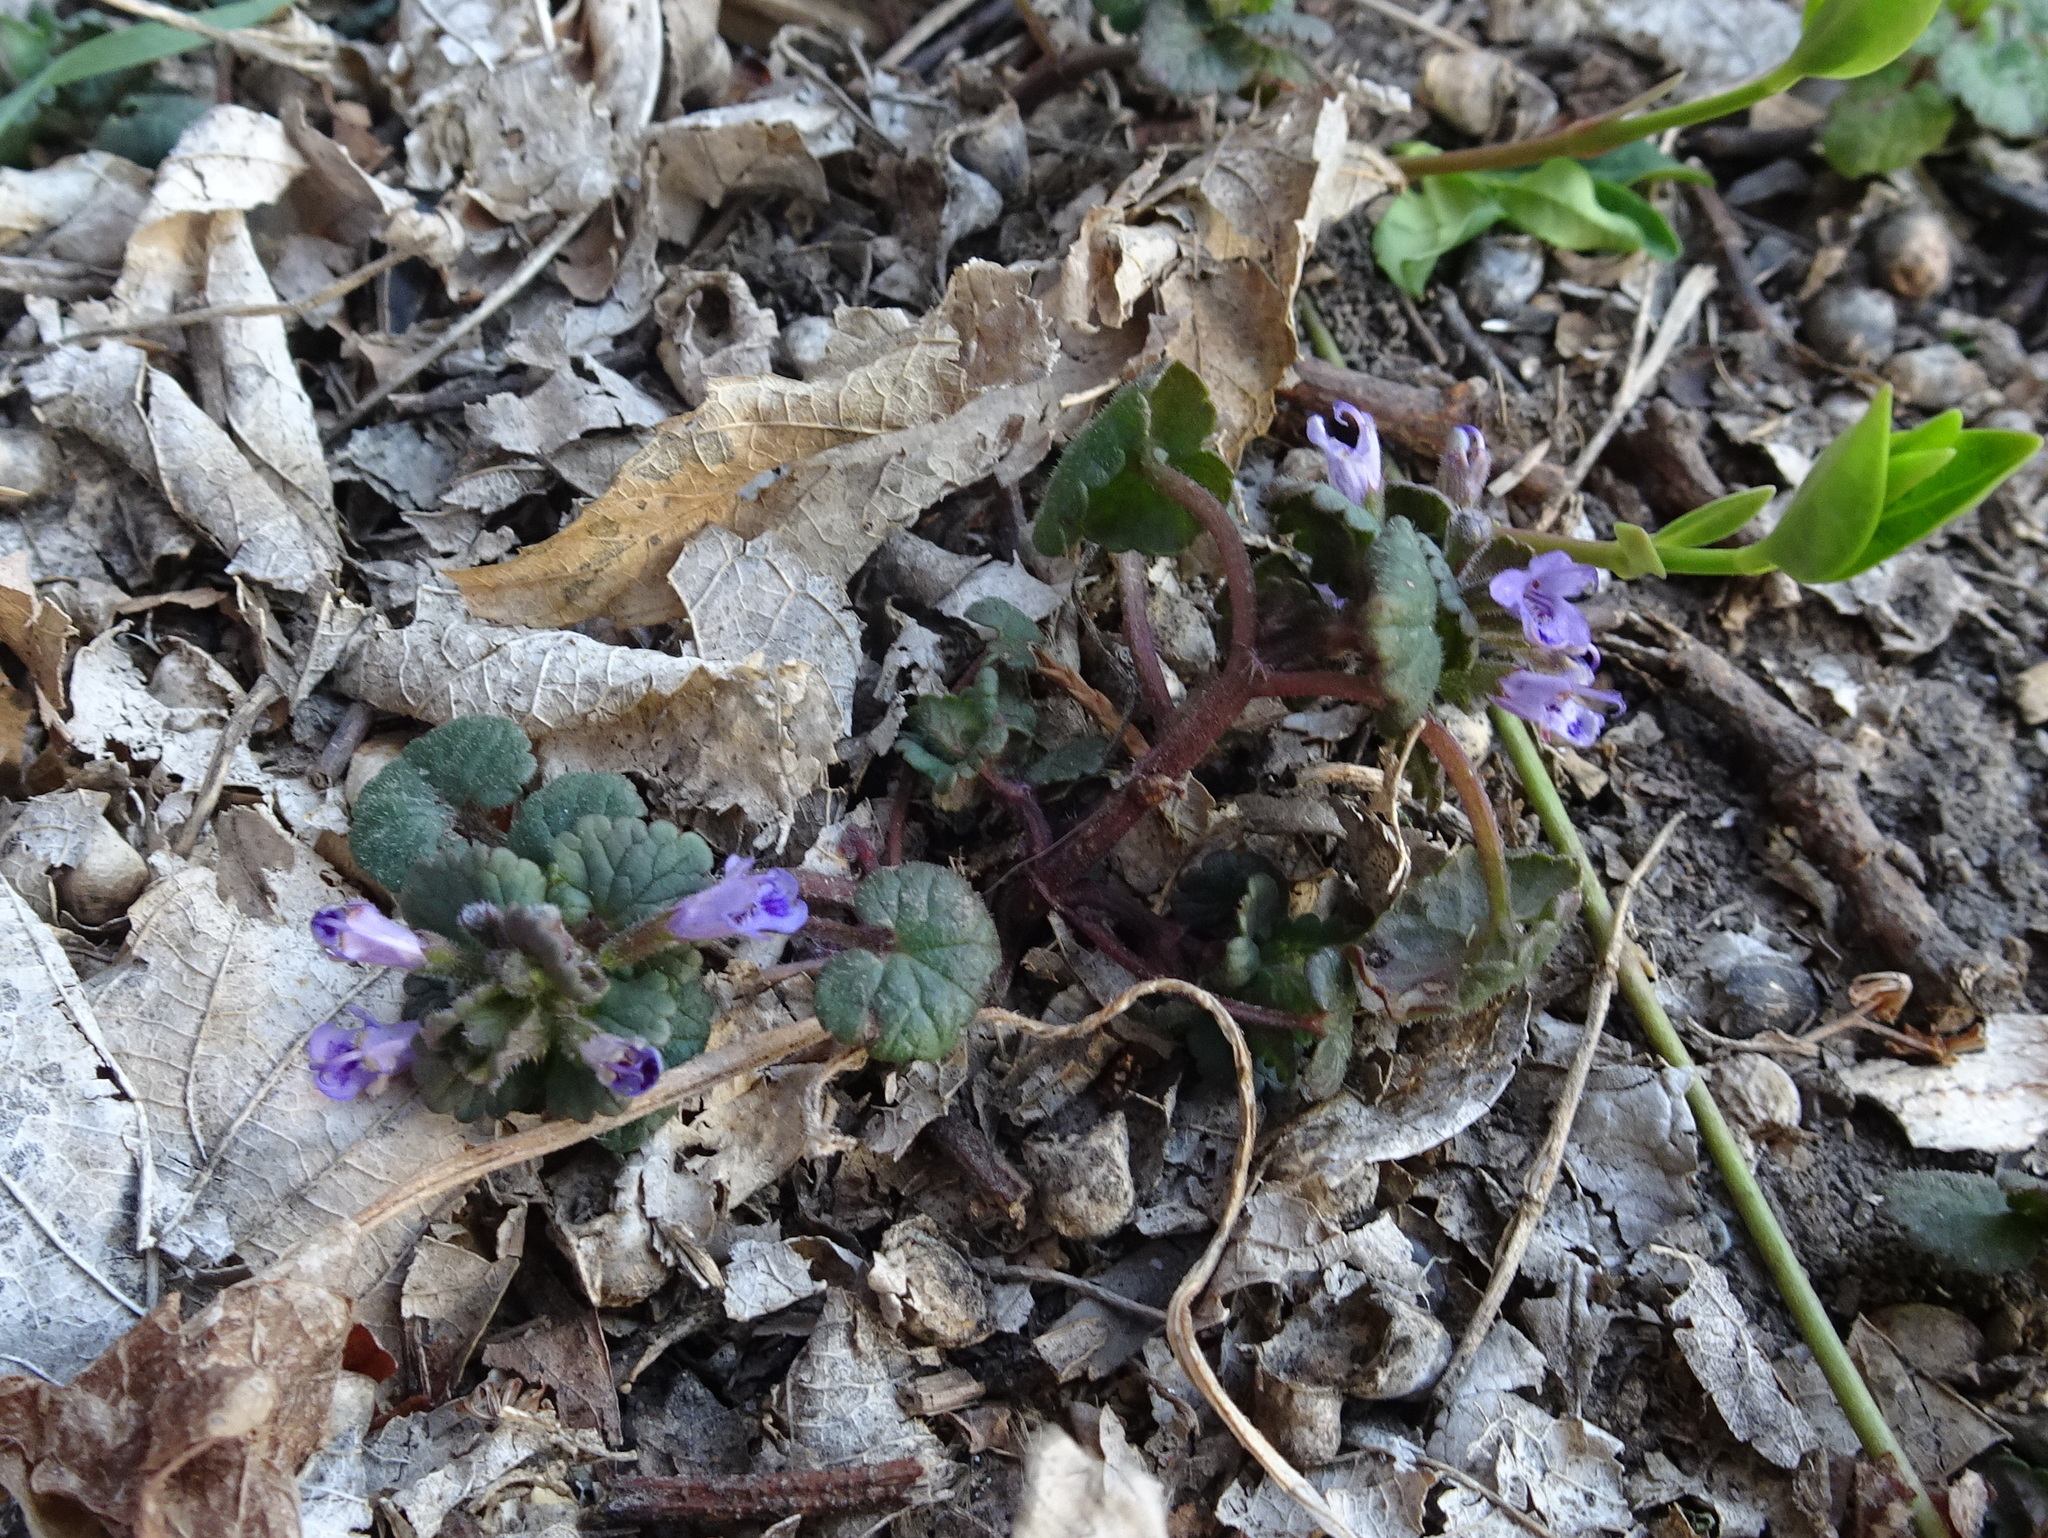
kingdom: Plantae
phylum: Tracheophyta
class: Magnoliopsida
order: Lamiales
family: Lamiaceae
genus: Glechoma
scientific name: Glechoma hederacea
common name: Ground ivy
